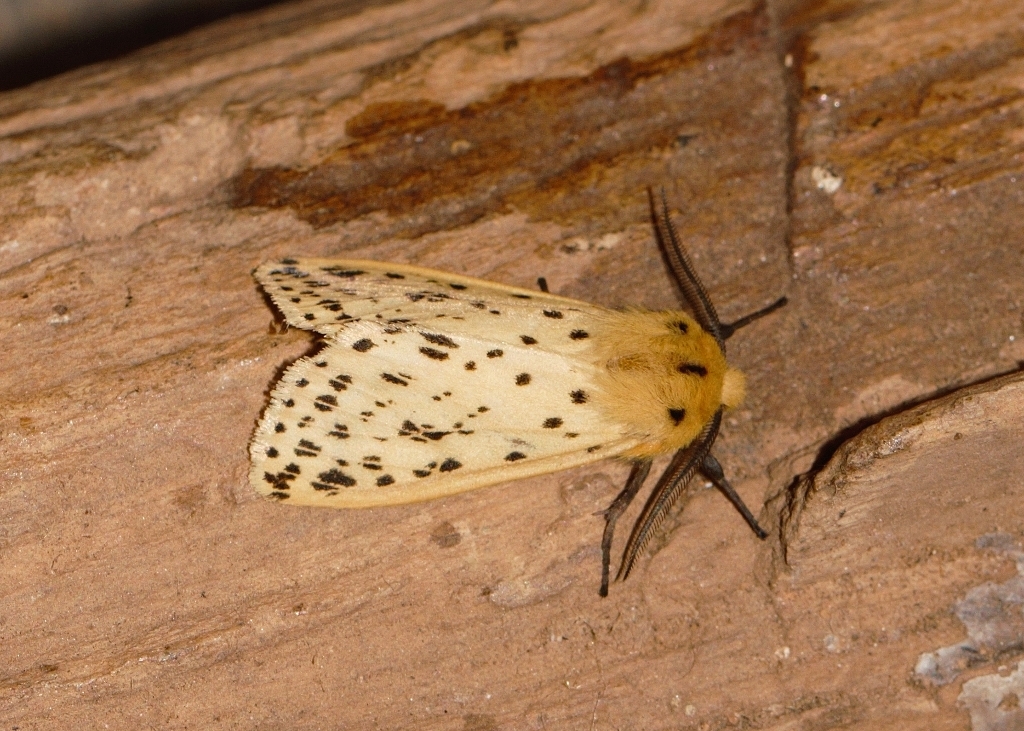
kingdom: Animalia
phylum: Arthropoda
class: Insecta
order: Lepidoptera
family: Erebidae
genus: Eyralpenus
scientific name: Eyralpenus testacea
